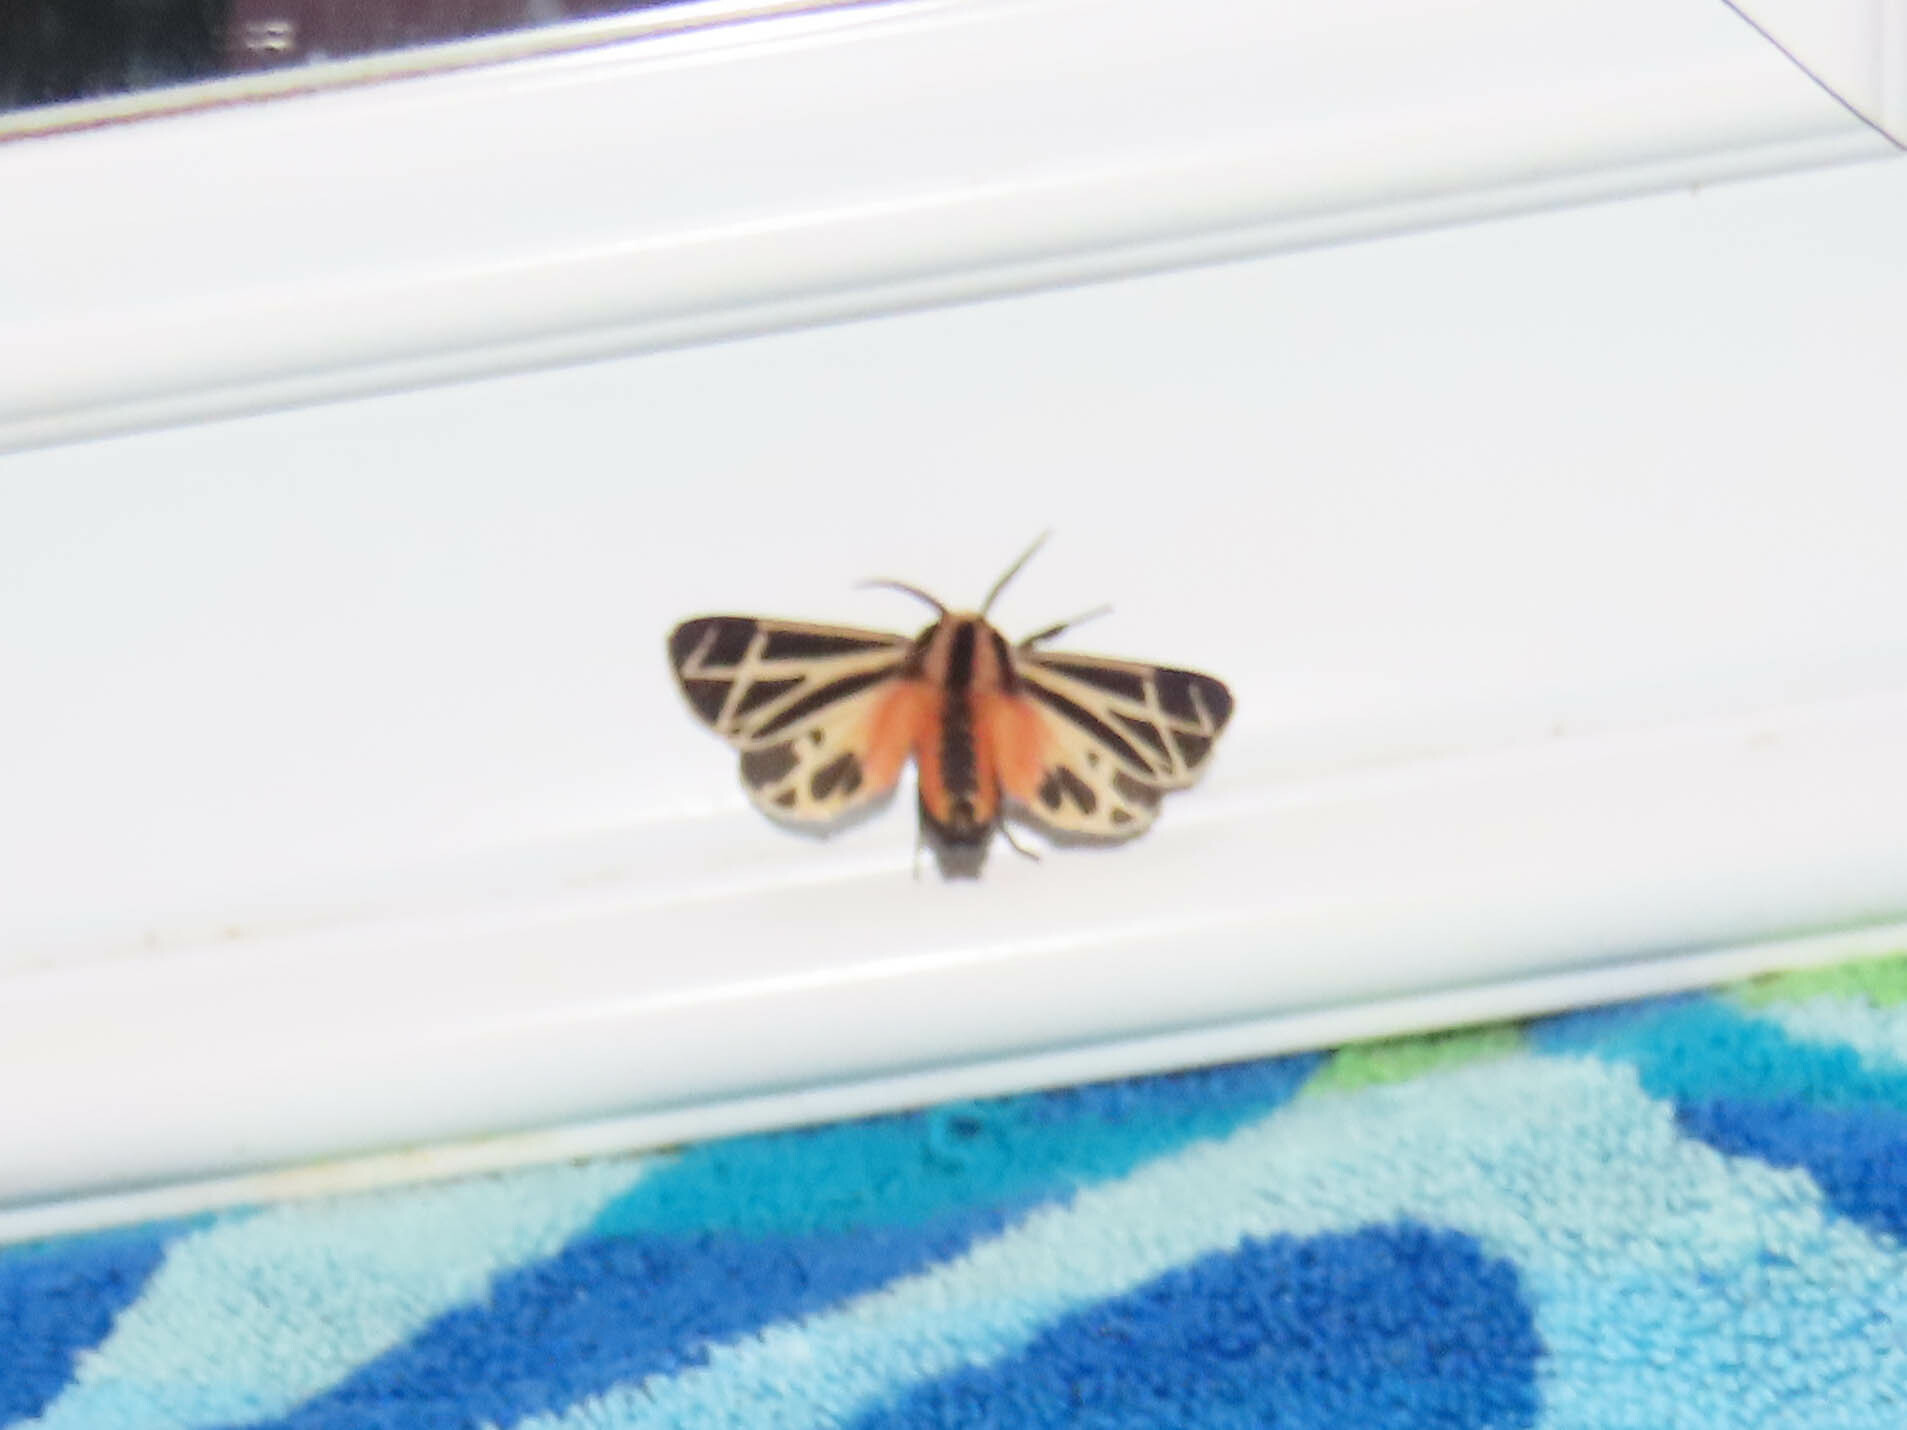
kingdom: Animalia
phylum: Arthropoda
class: Insecta
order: Lepidoptera
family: Erebidae
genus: Apantesis
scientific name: Apantesis phalerata
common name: Harnessed tiger moth
